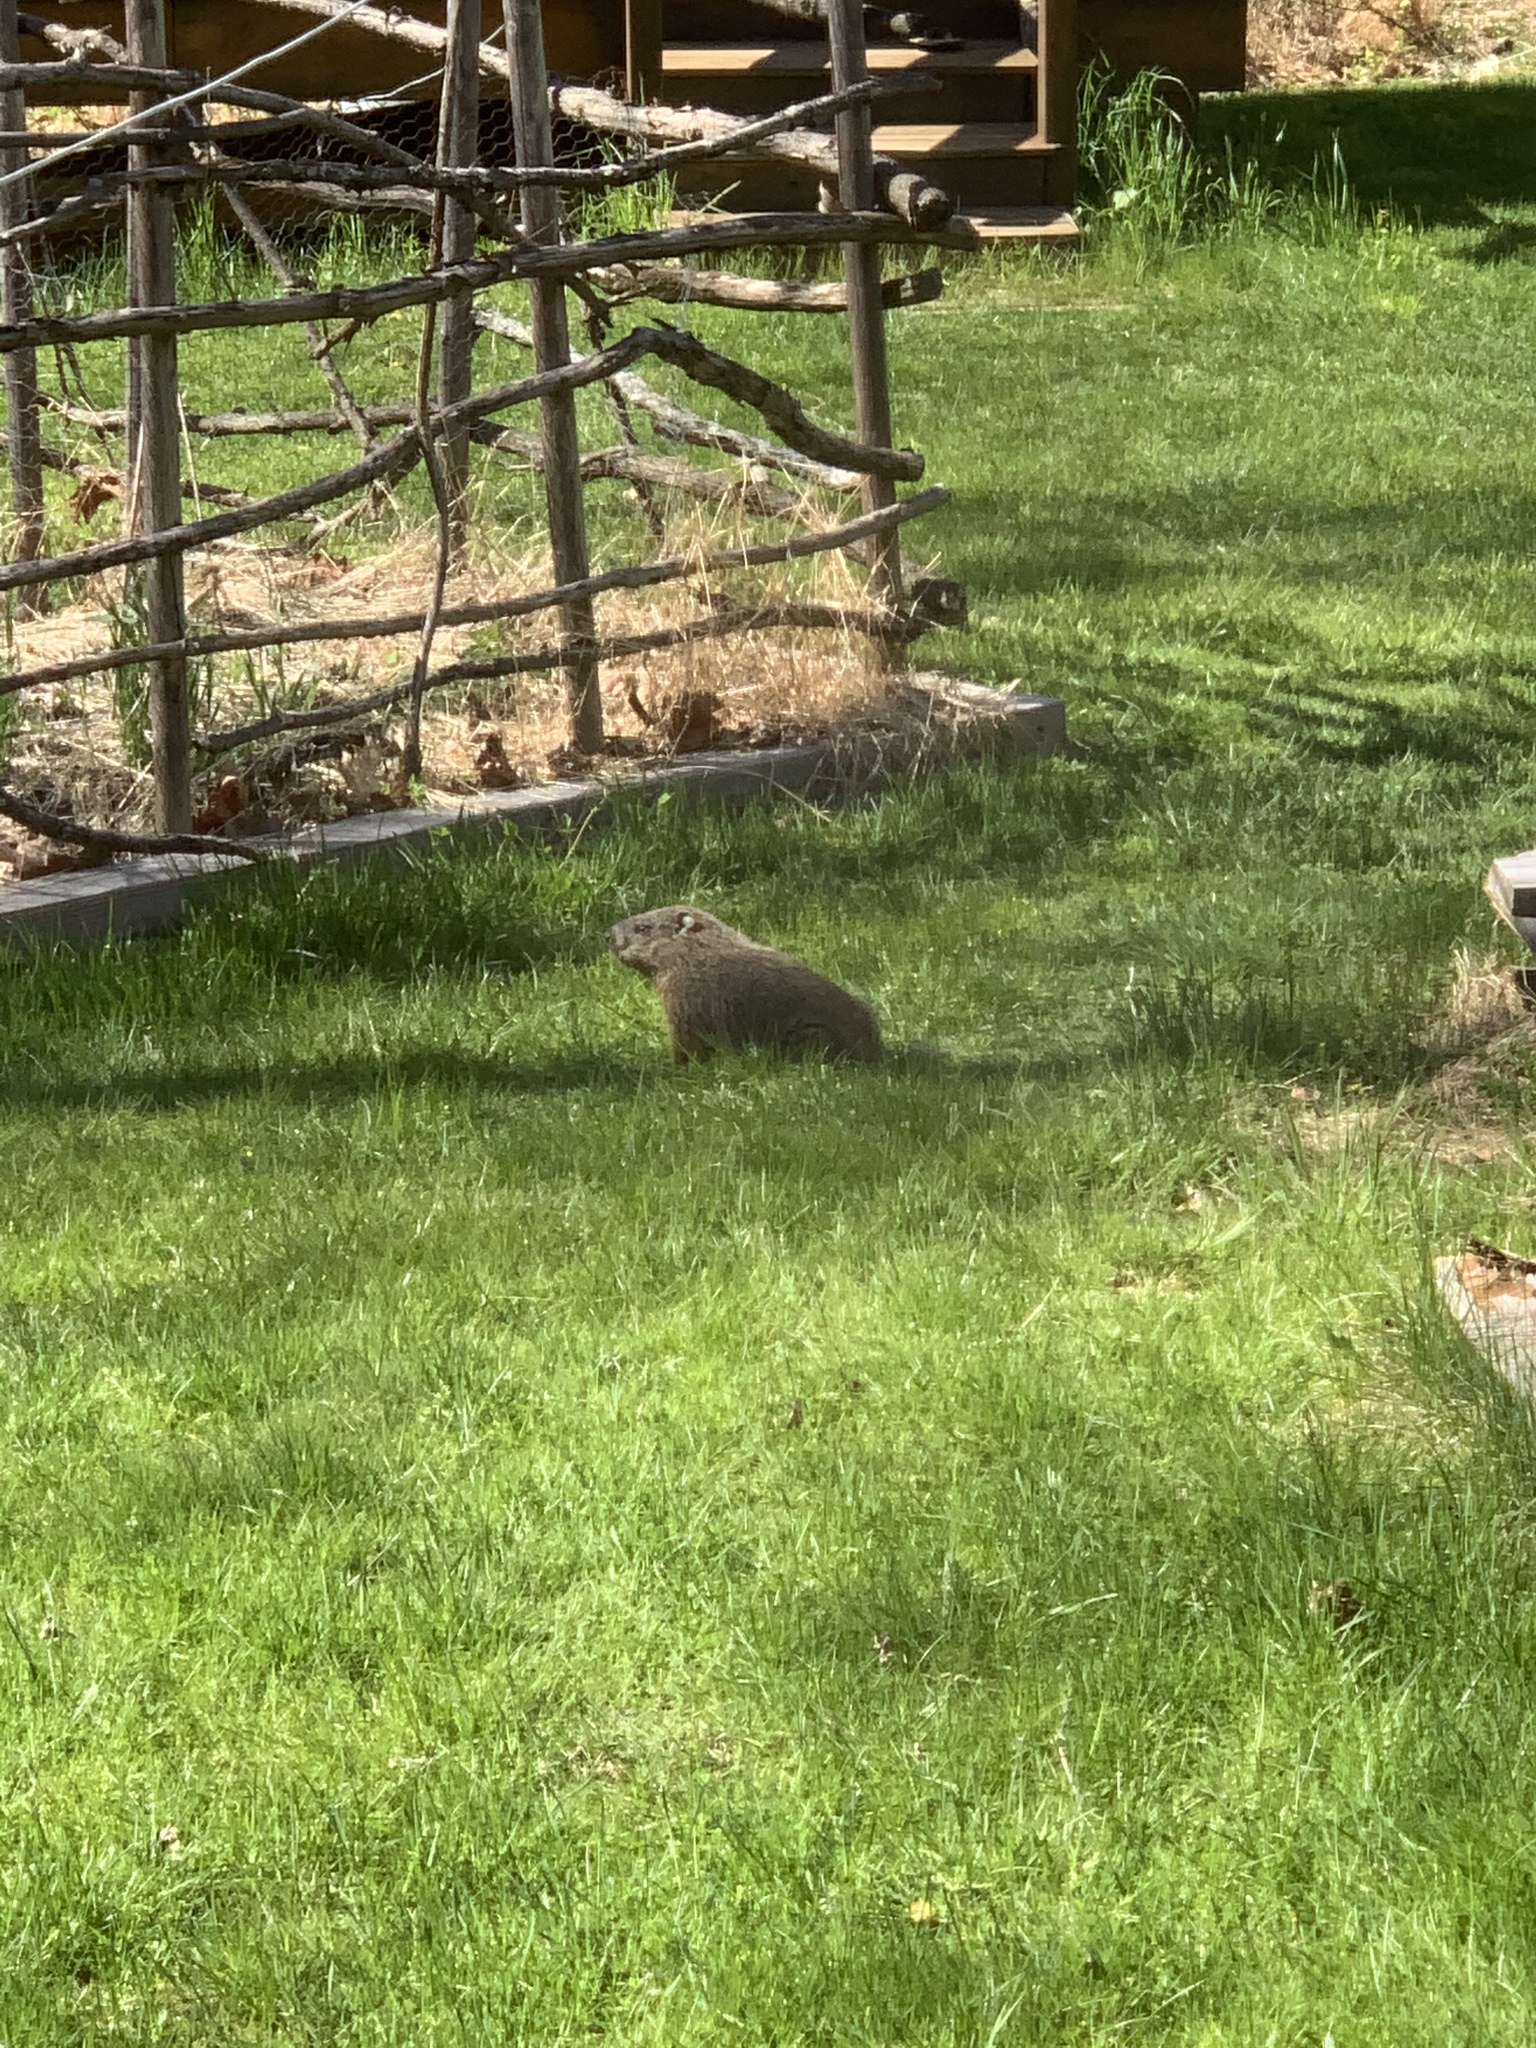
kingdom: Animalia
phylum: Chordata
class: Mammalia
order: Rodentia
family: Sciuridae
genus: Marmota
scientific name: Marmota monax
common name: Groundhog
